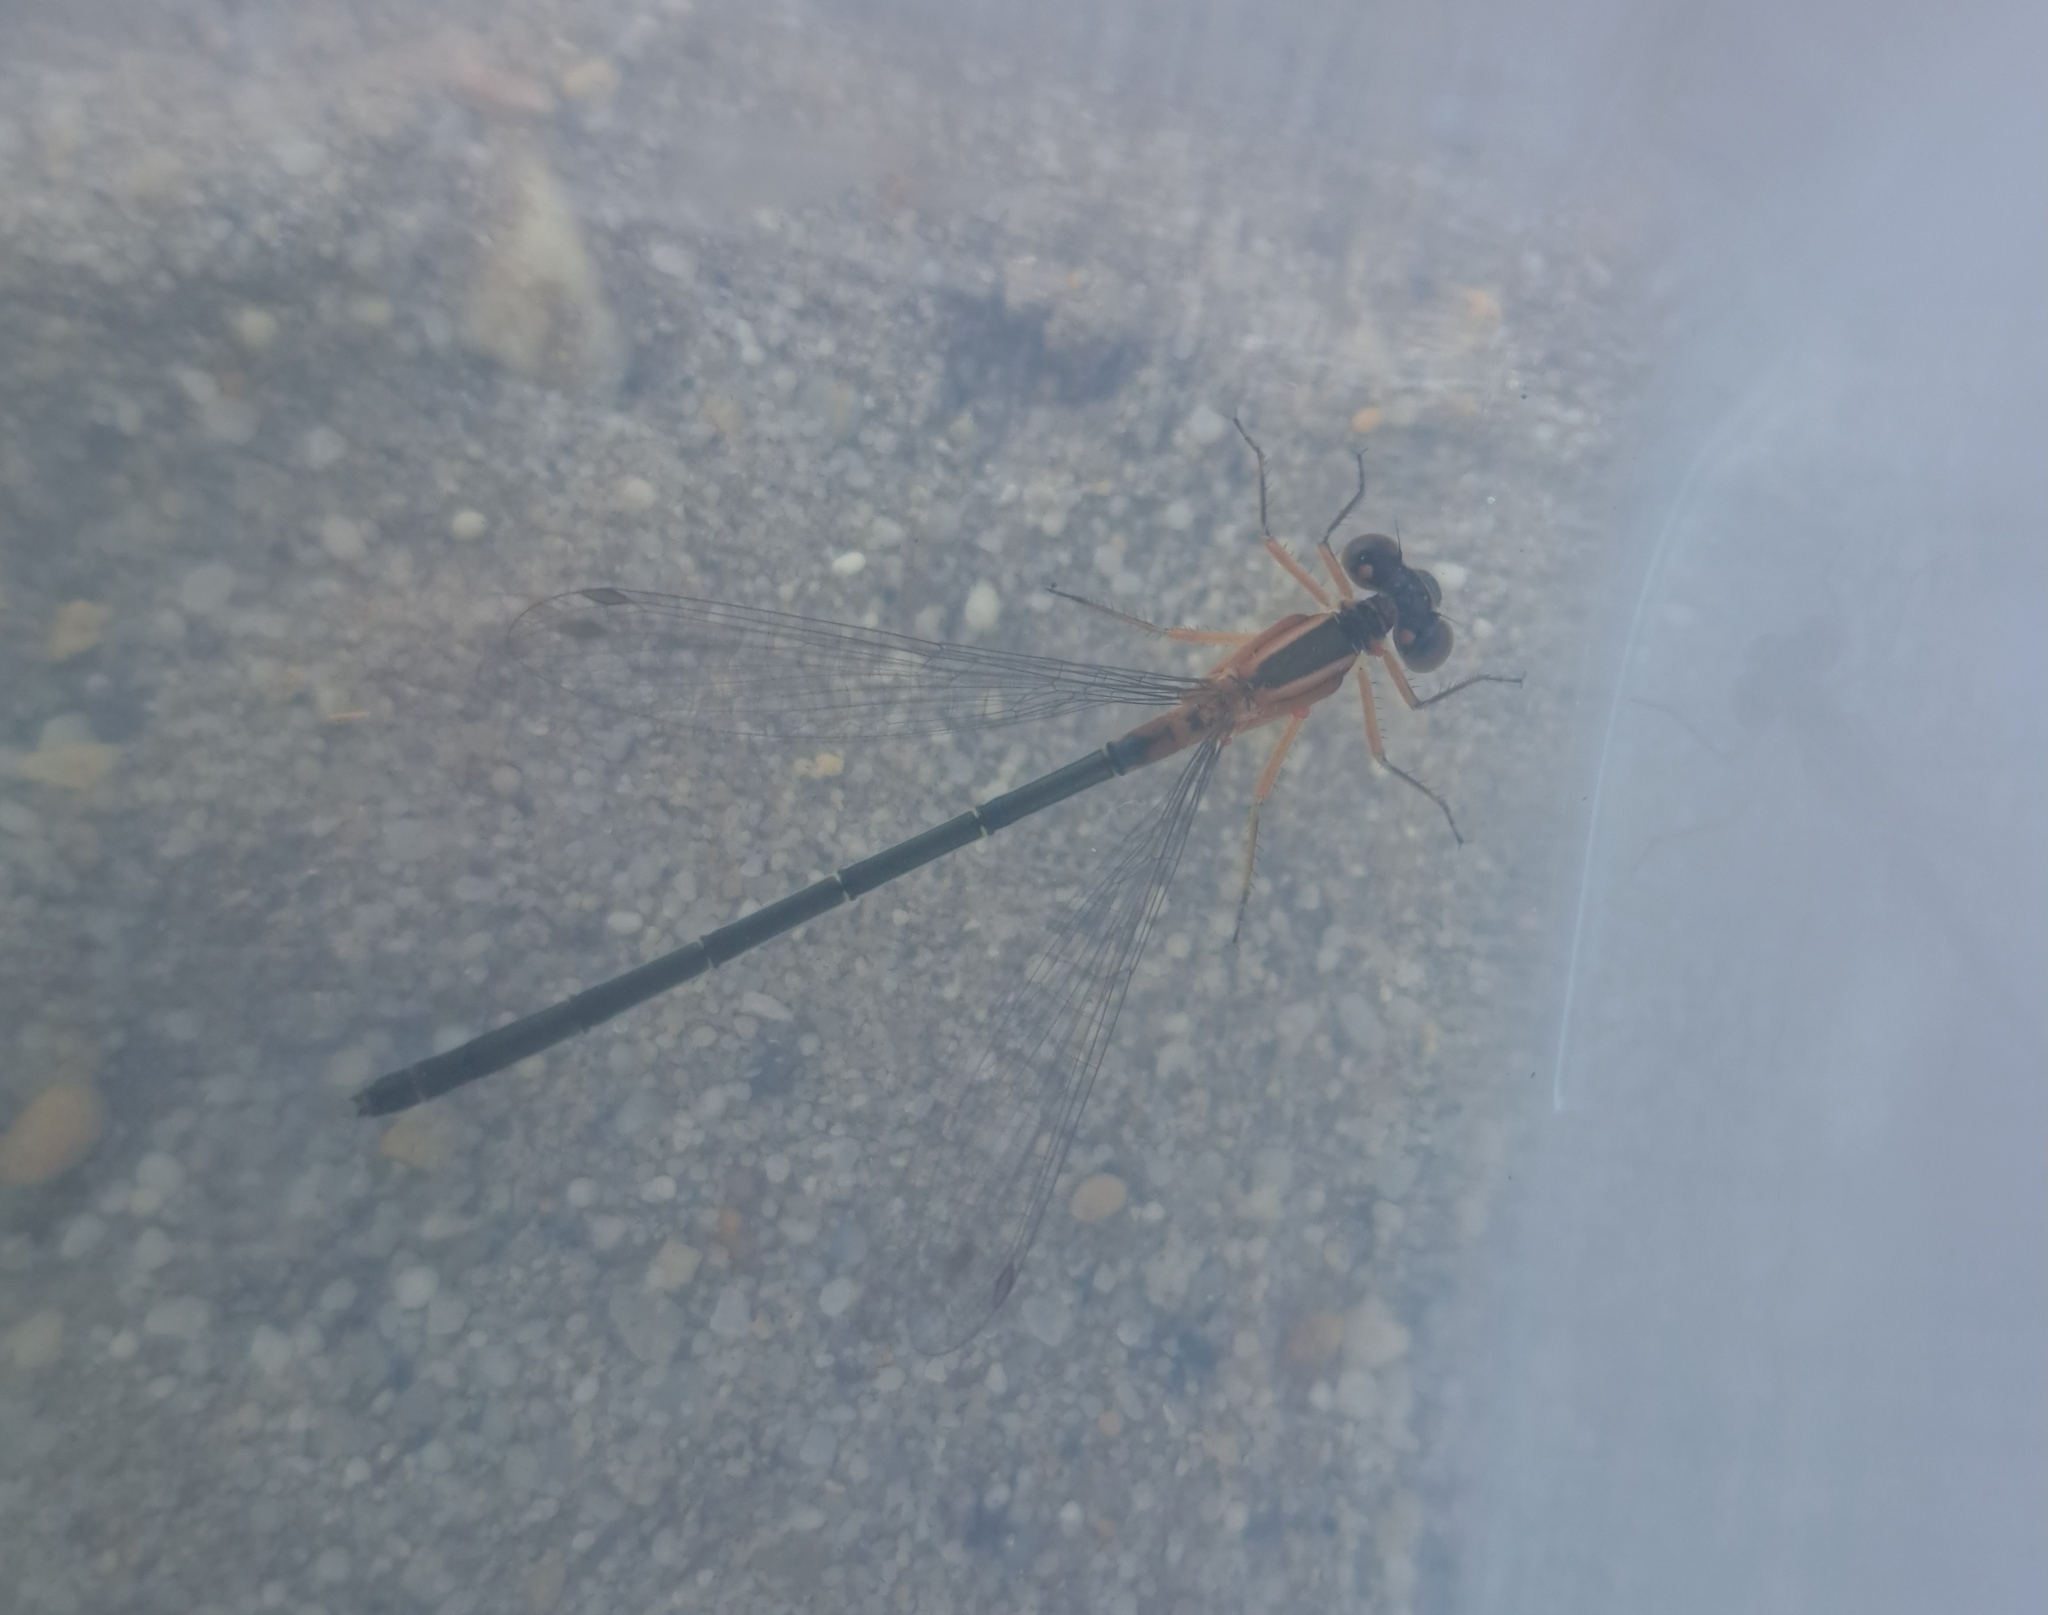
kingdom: Animalia
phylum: Arthropoda
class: Insecta
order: Odonata
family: Coenagrionidae
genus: Ischnura
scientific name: Ischnura senegalensis
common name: Tropical bluetail
